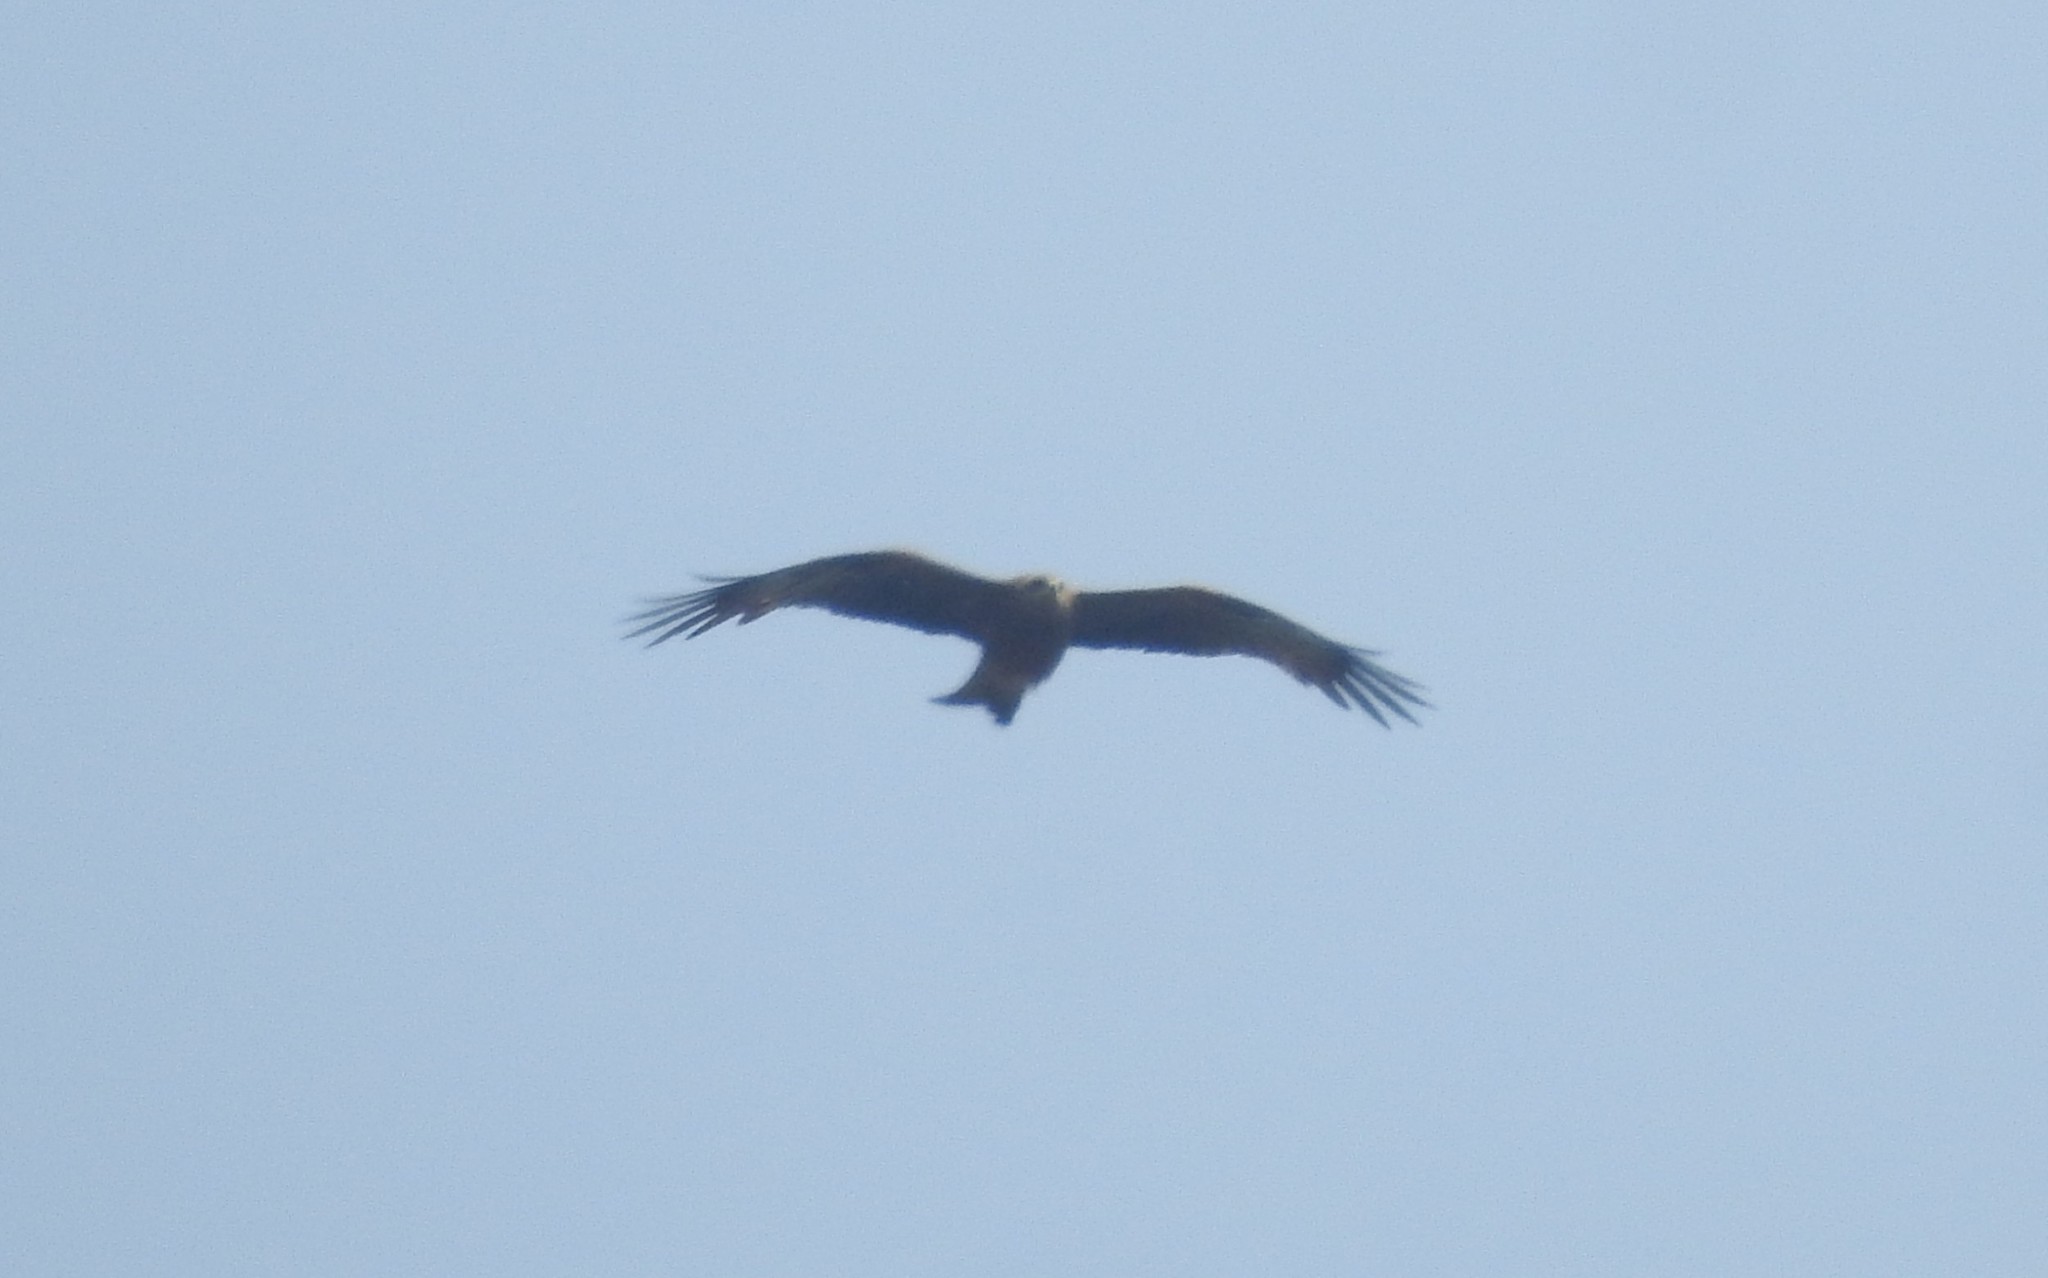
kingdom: Animalia
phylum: Chordata
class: Aves
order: Accipitriformes
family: Accipitridae
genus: Milvus
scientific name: Milvus migrans
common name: Black kite
